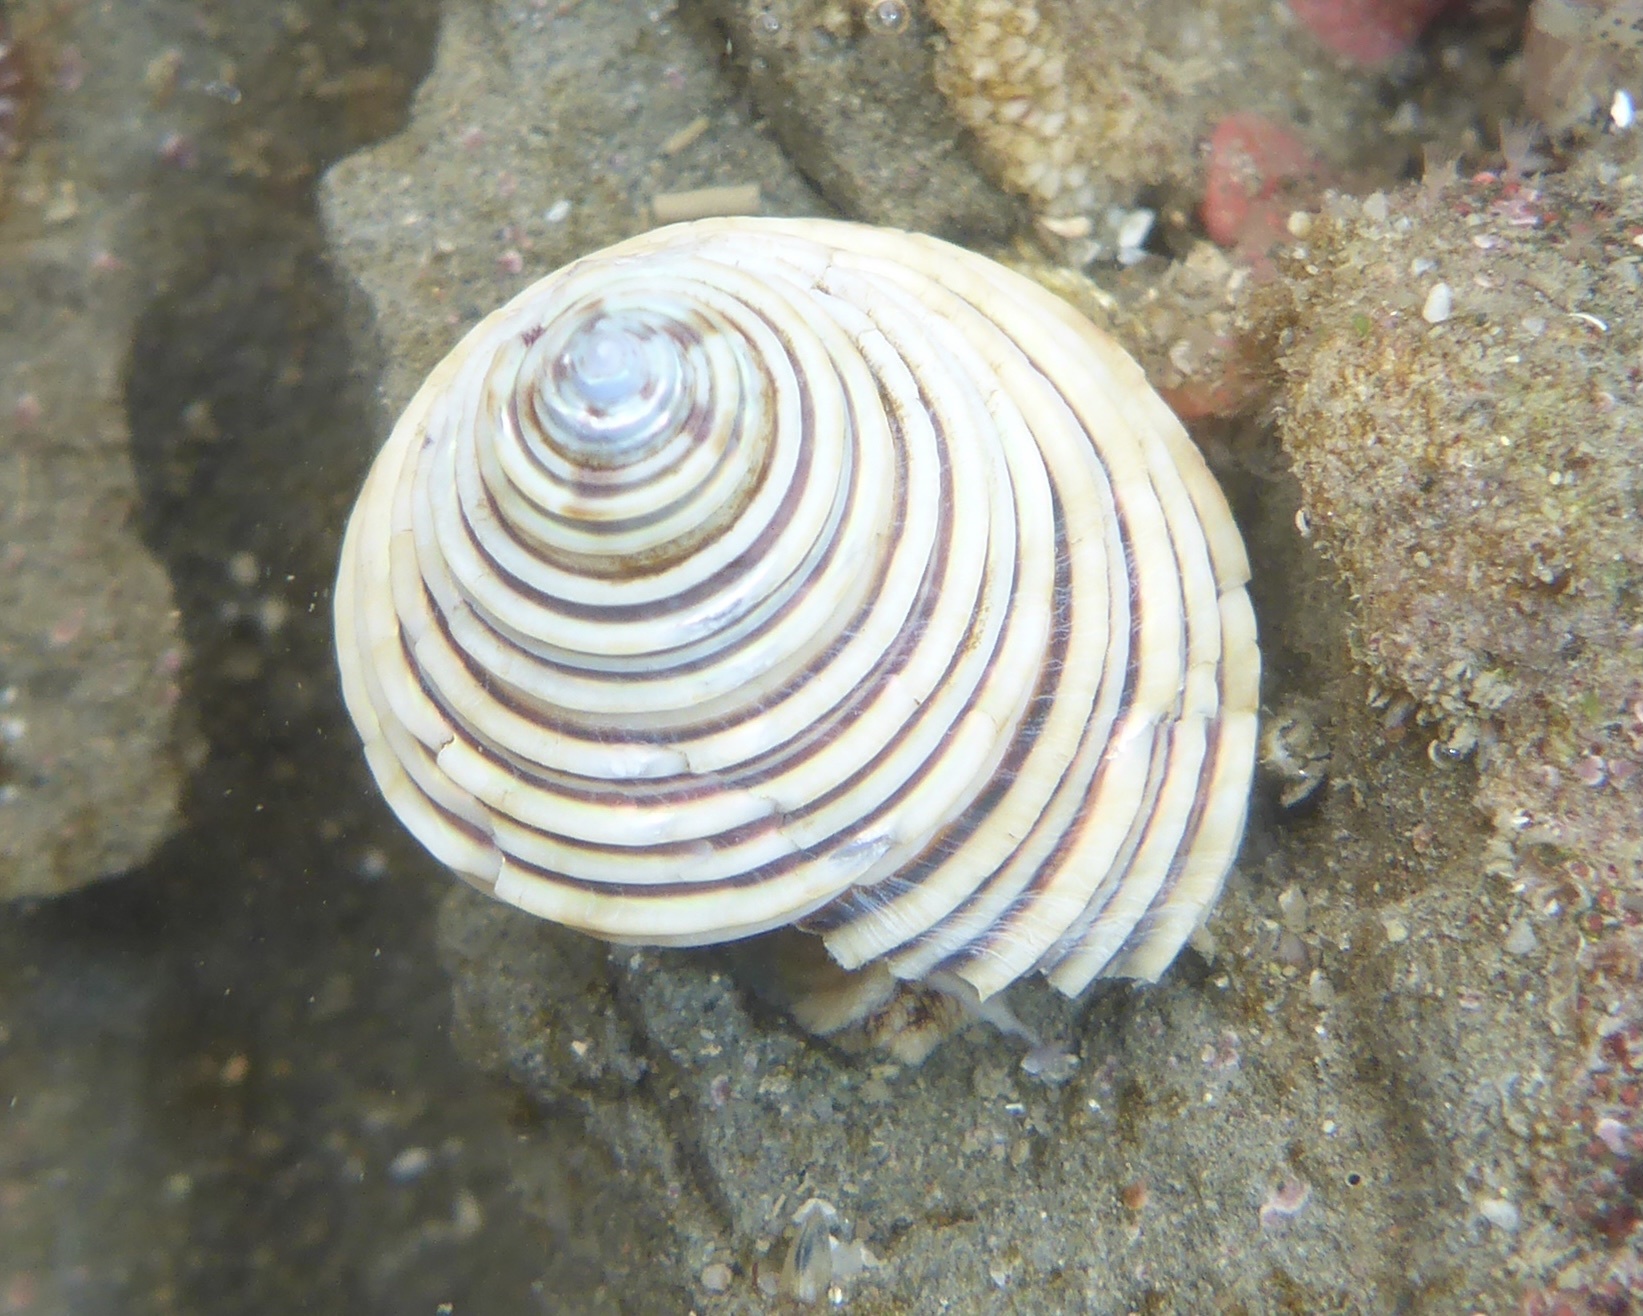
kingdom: Animalia
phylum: Mollusca
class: Gastropoda
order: Trochida
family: Calliostomatidae
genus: Calliostoma
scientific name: Calliostoma canaliculatum
